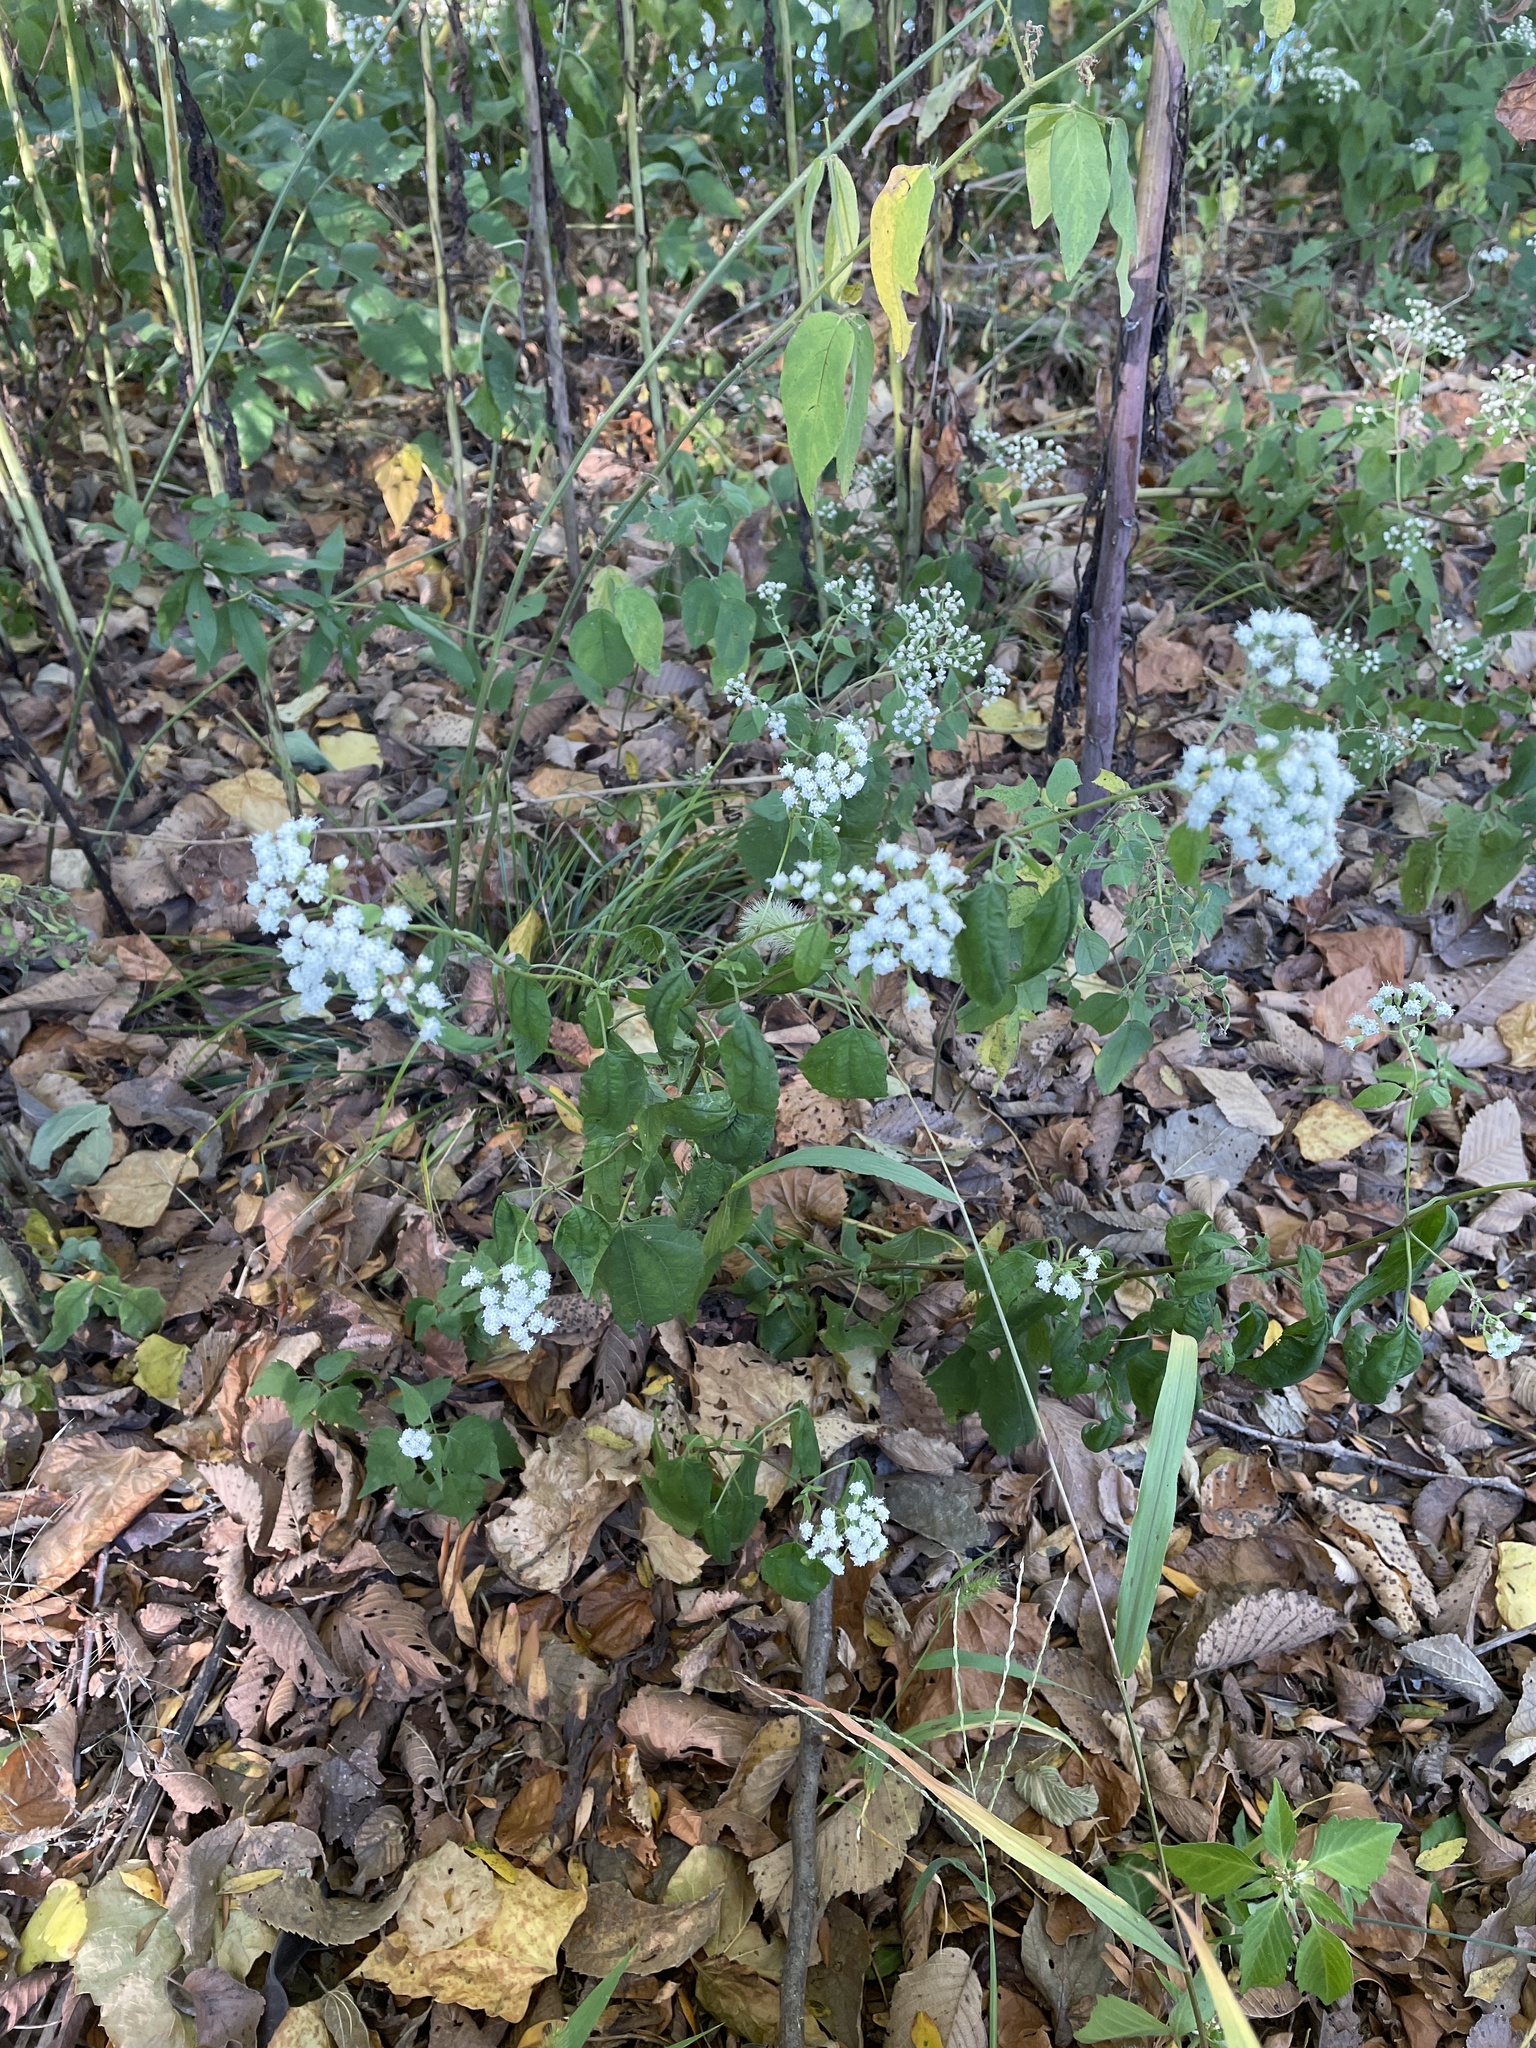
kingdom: Plantae
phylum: Tracheophyta
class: Magnoliopsida
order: Asterales
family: Asteraceae
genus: Ageratina
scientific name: Ageratina altissima
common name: White snakeroot
